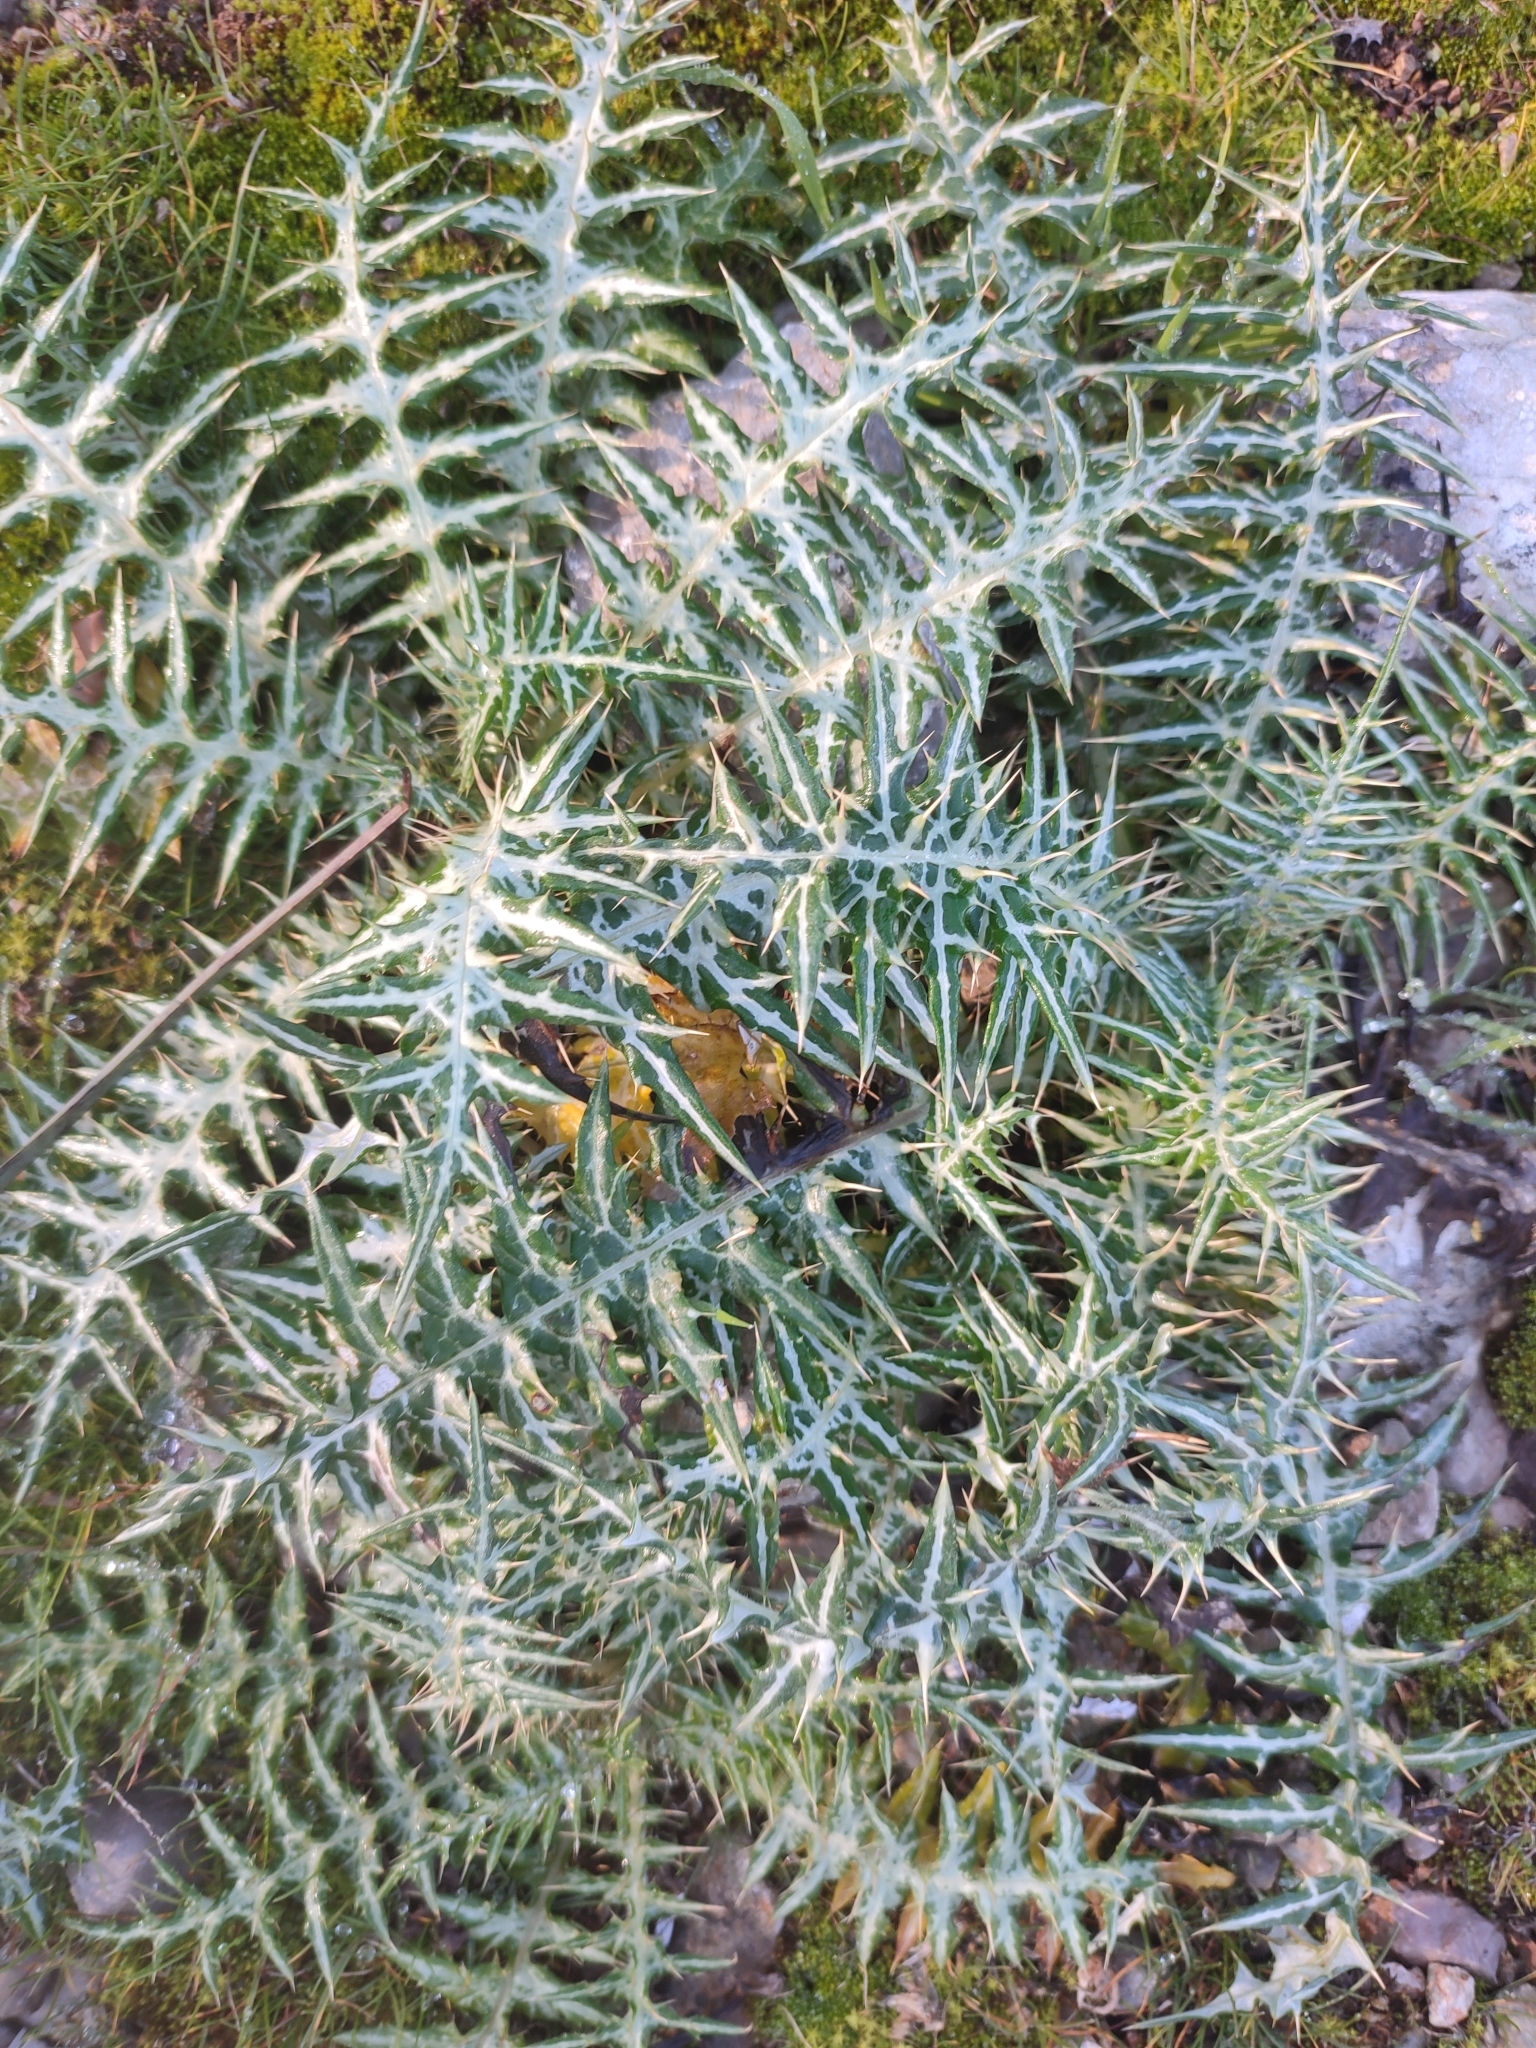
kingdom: Plantae
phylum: Tracheophyta
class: Magnoliopsida
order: Asterales
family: Asteraceae
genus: Galactites
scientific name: Galactites tomentosa
